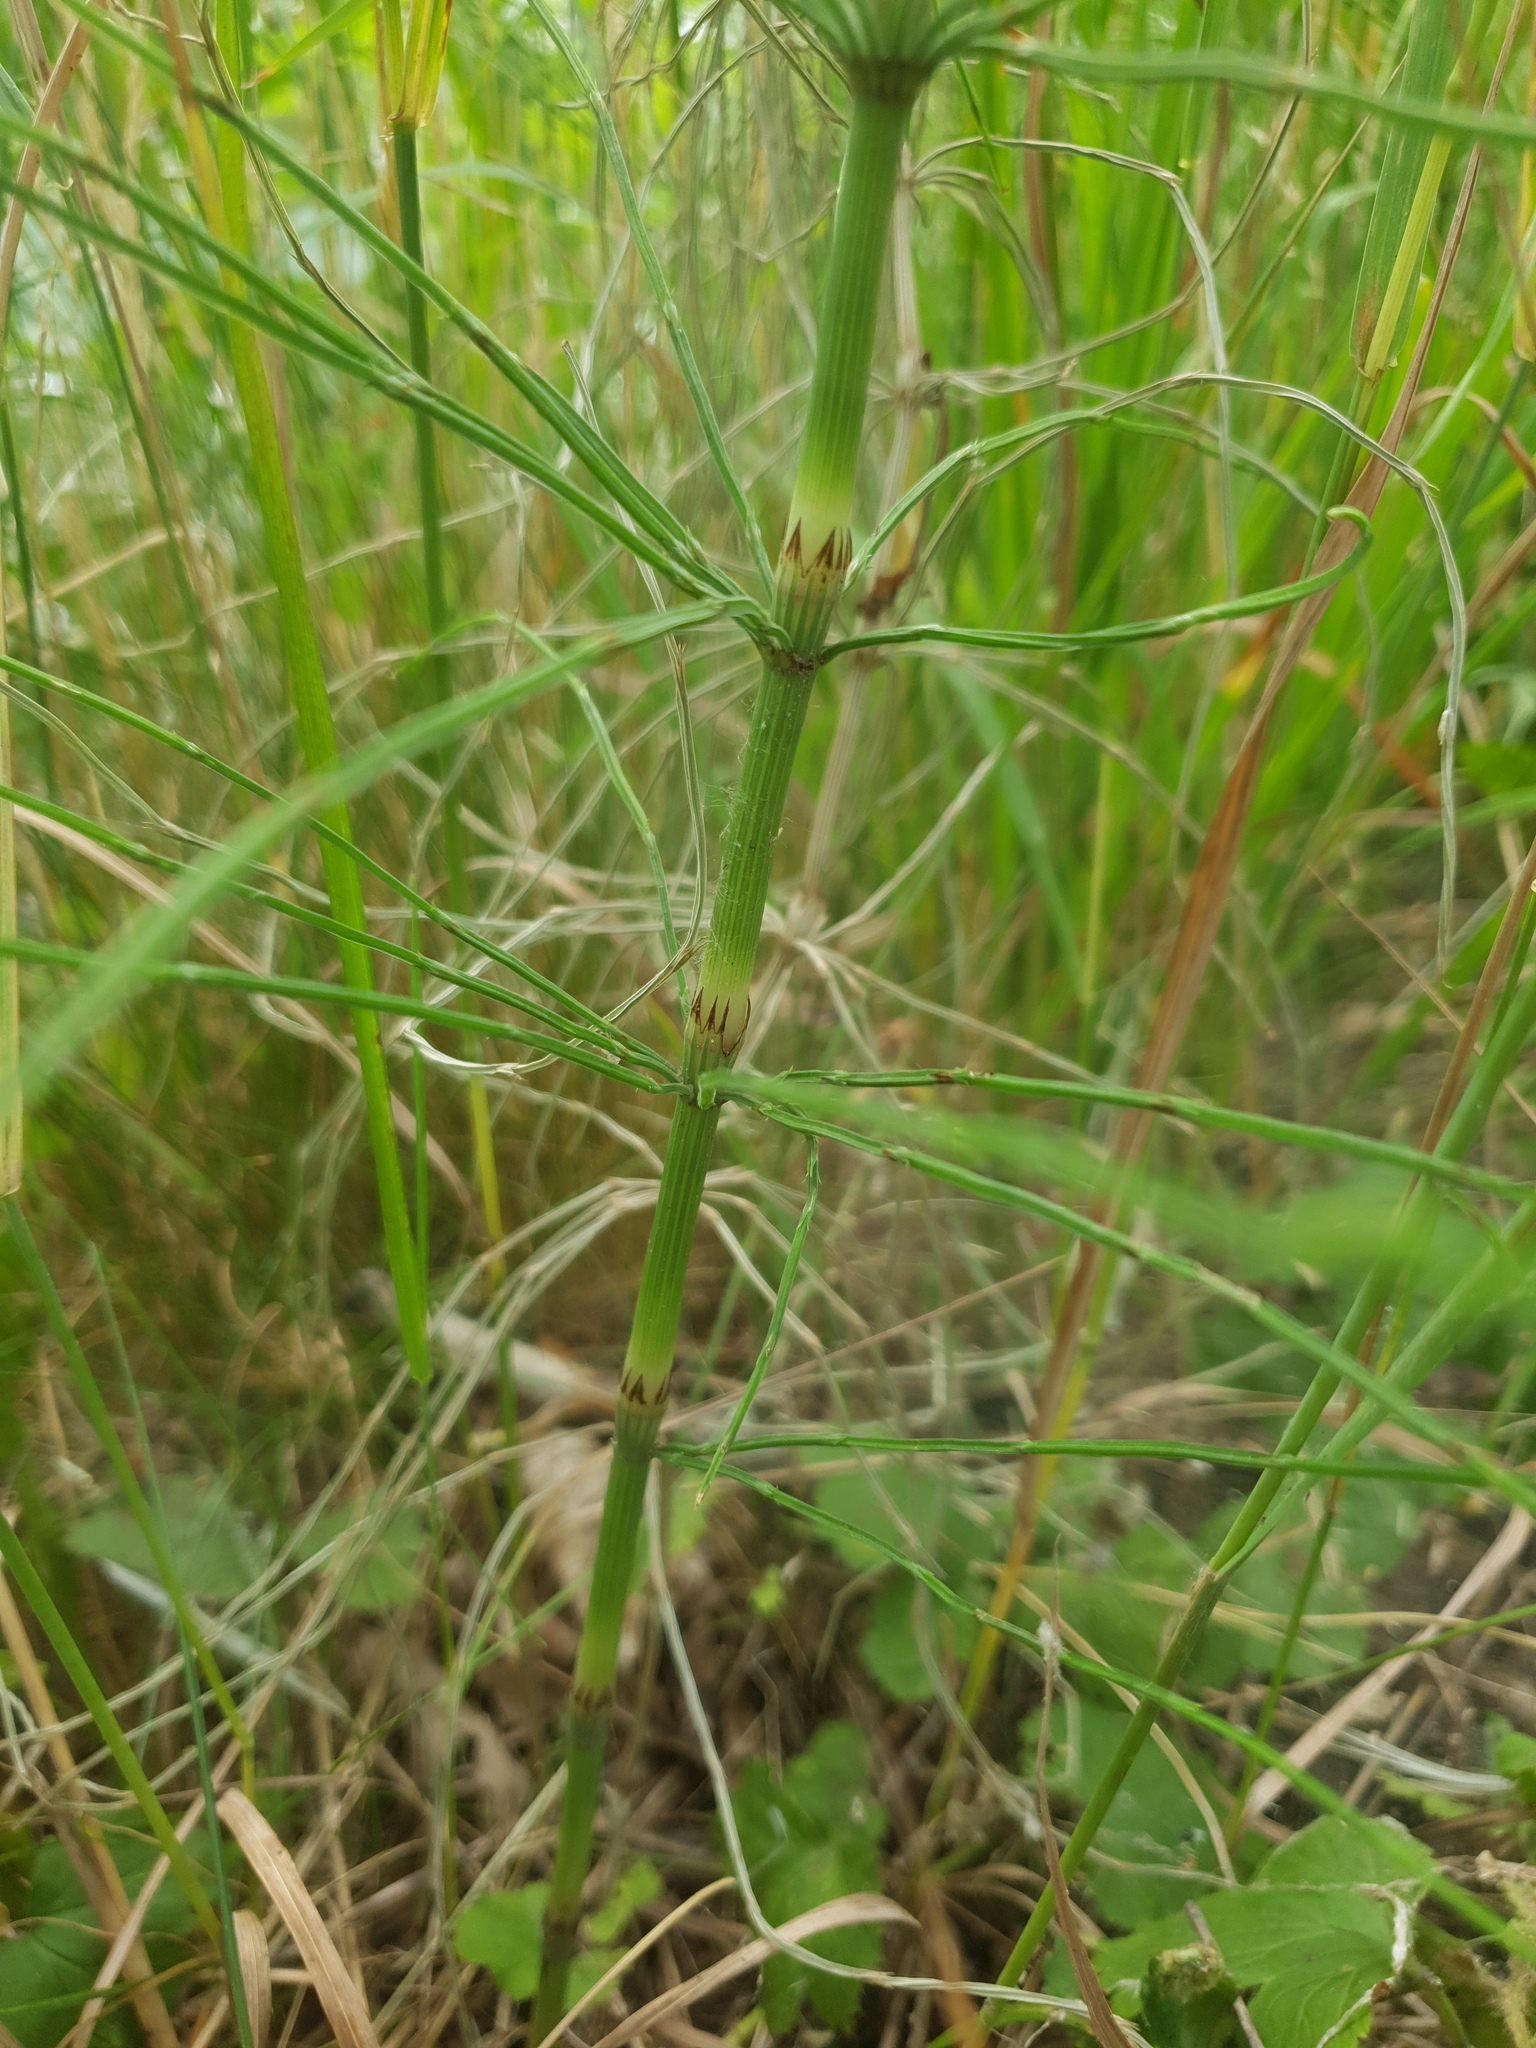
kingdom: Plantae
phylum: Tracheophyta
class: Polypodiopsida
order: Equisetales
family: Equisetaceae
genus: Equisetum
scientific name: Equisetum arvense
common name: Field horsetail
